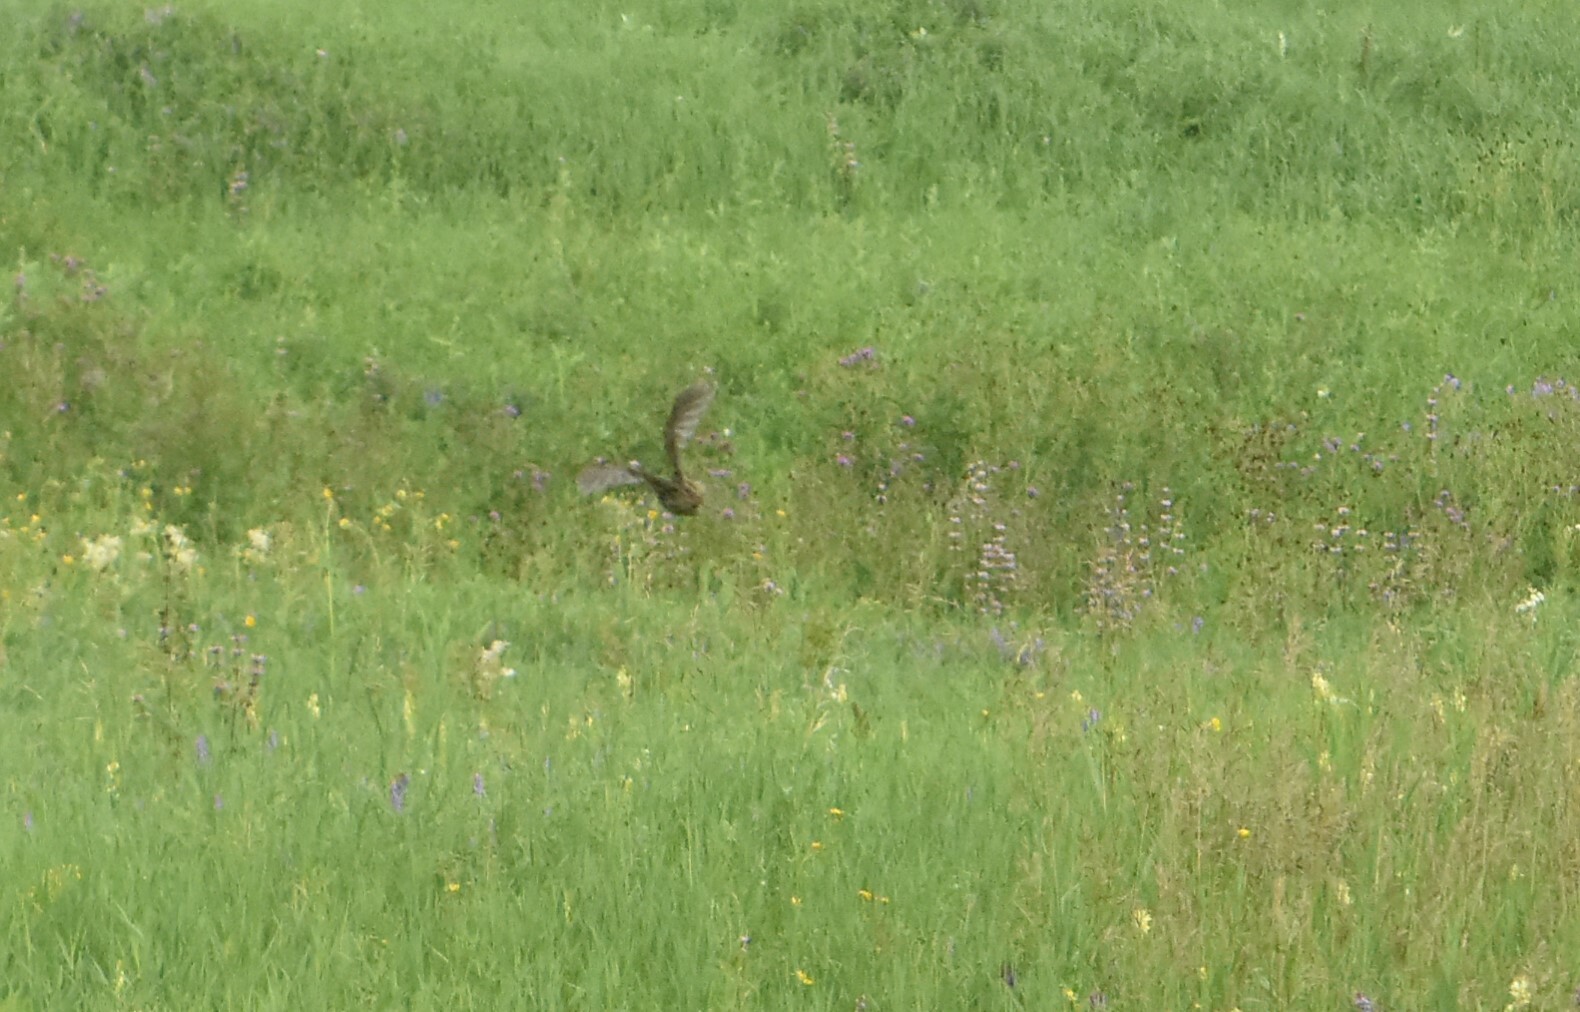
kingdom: Animalia
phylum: Chordata
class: Aves
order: Galliformes
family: Phasianidae
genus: Coturnix
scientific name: Coturnix coturnix
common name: Common quail
